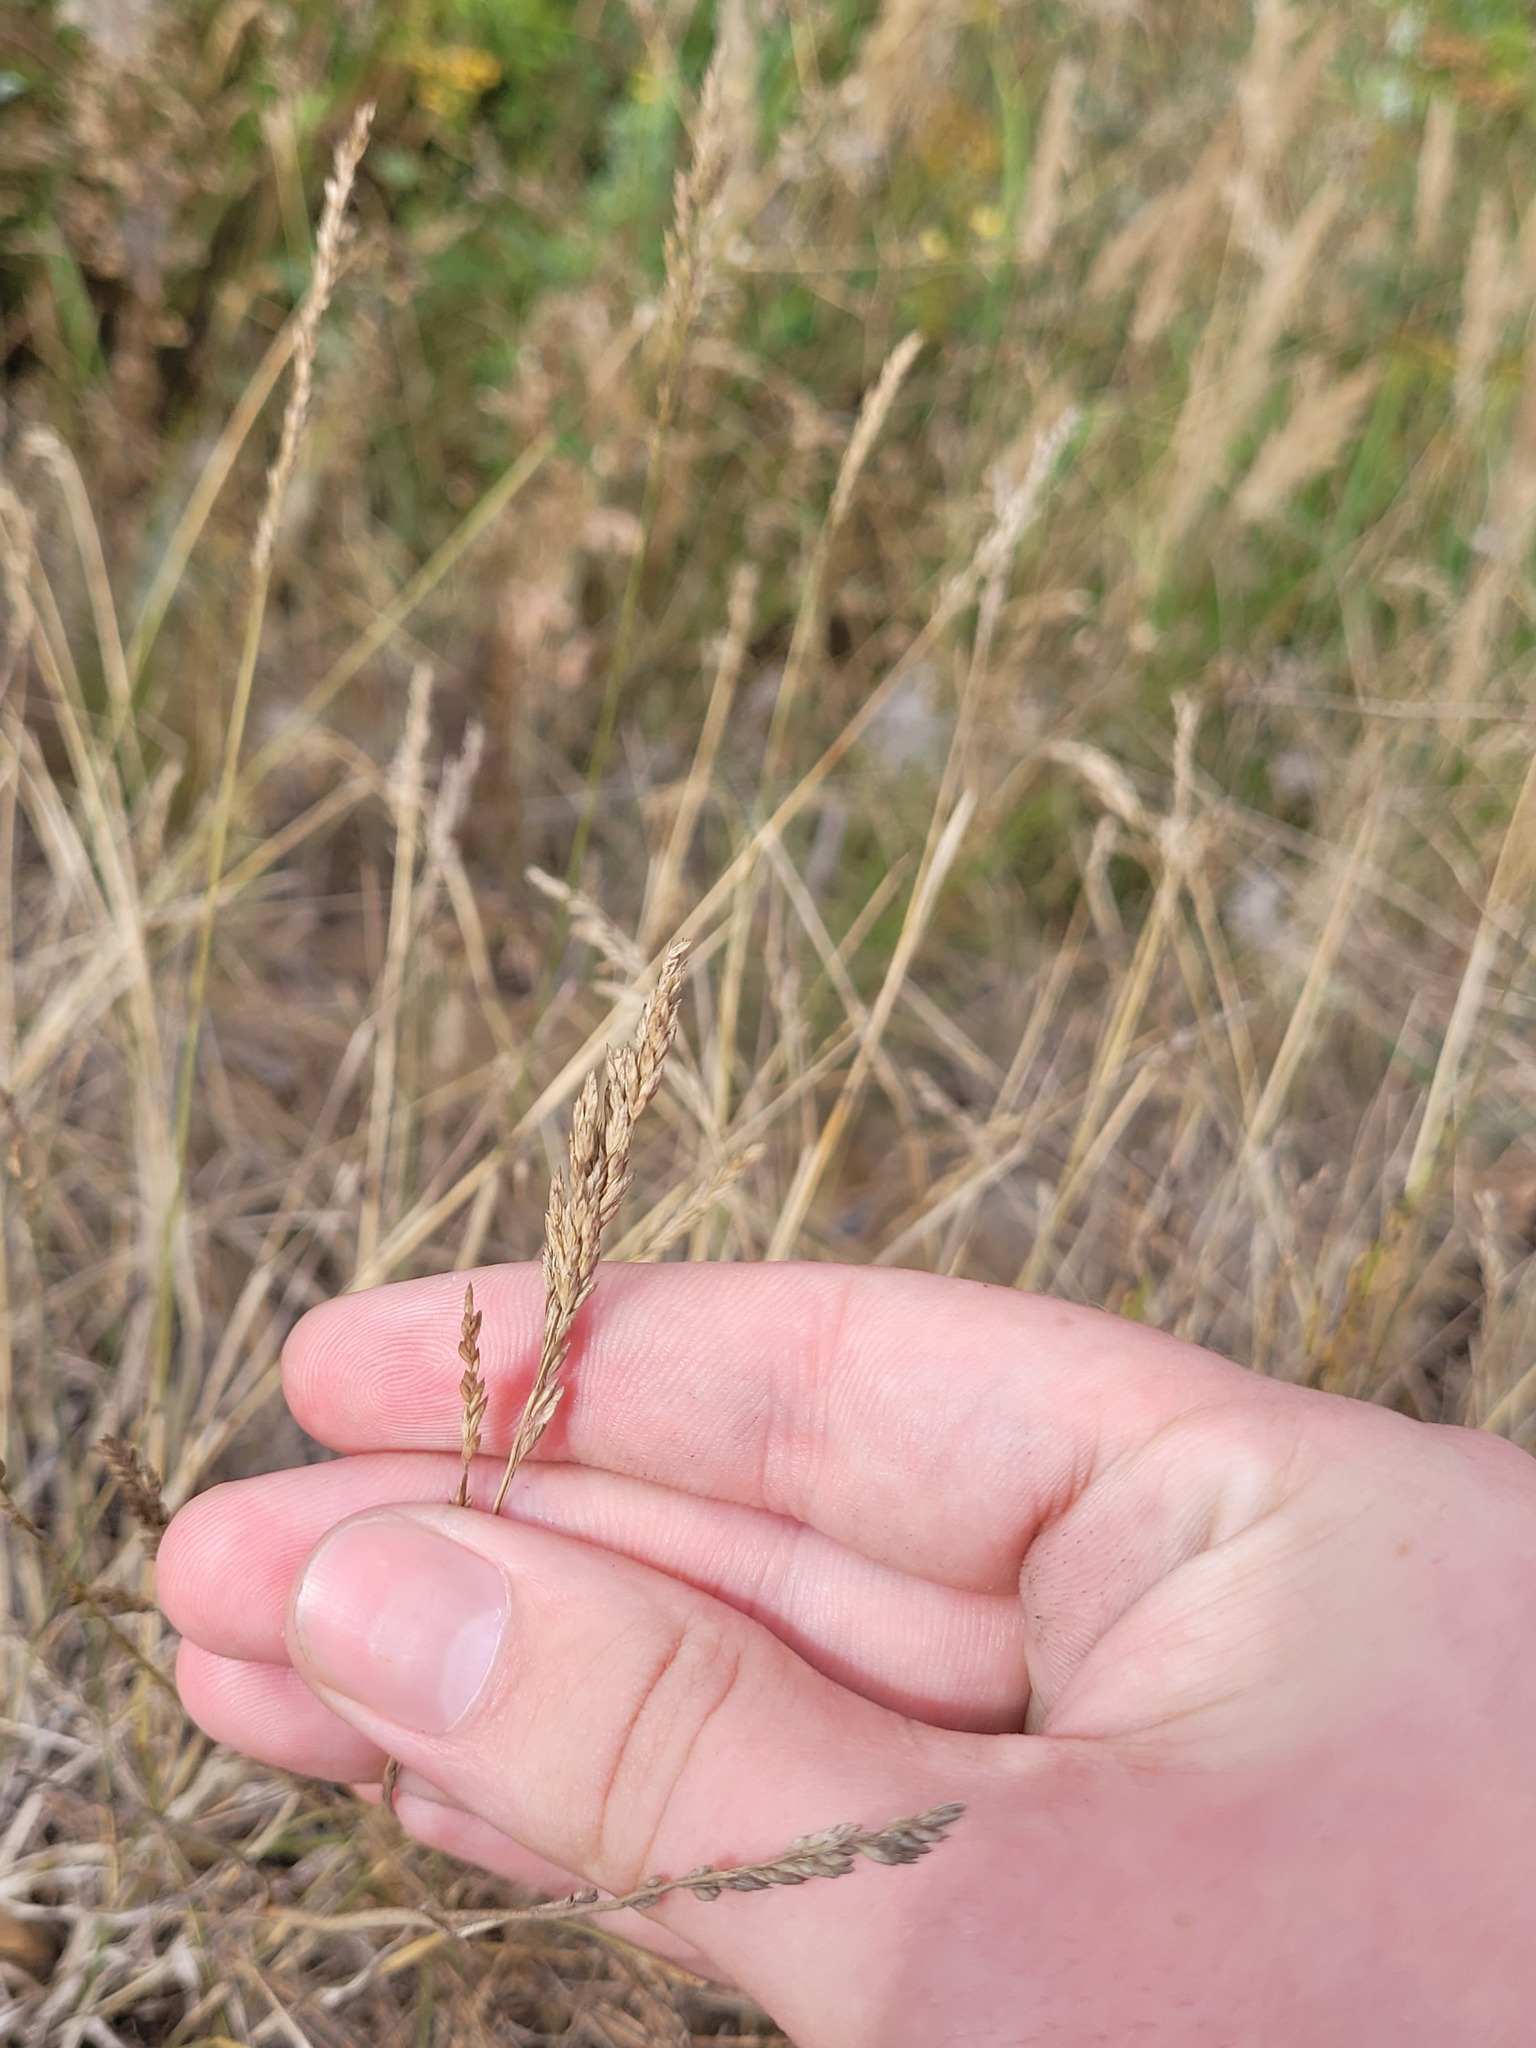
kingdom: Plantae
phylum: Tracheophyta
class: Liliopsida
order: Poales
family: Poaceae
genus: Poa
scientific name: Poa pratensis
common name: Kentucky bluegrass
